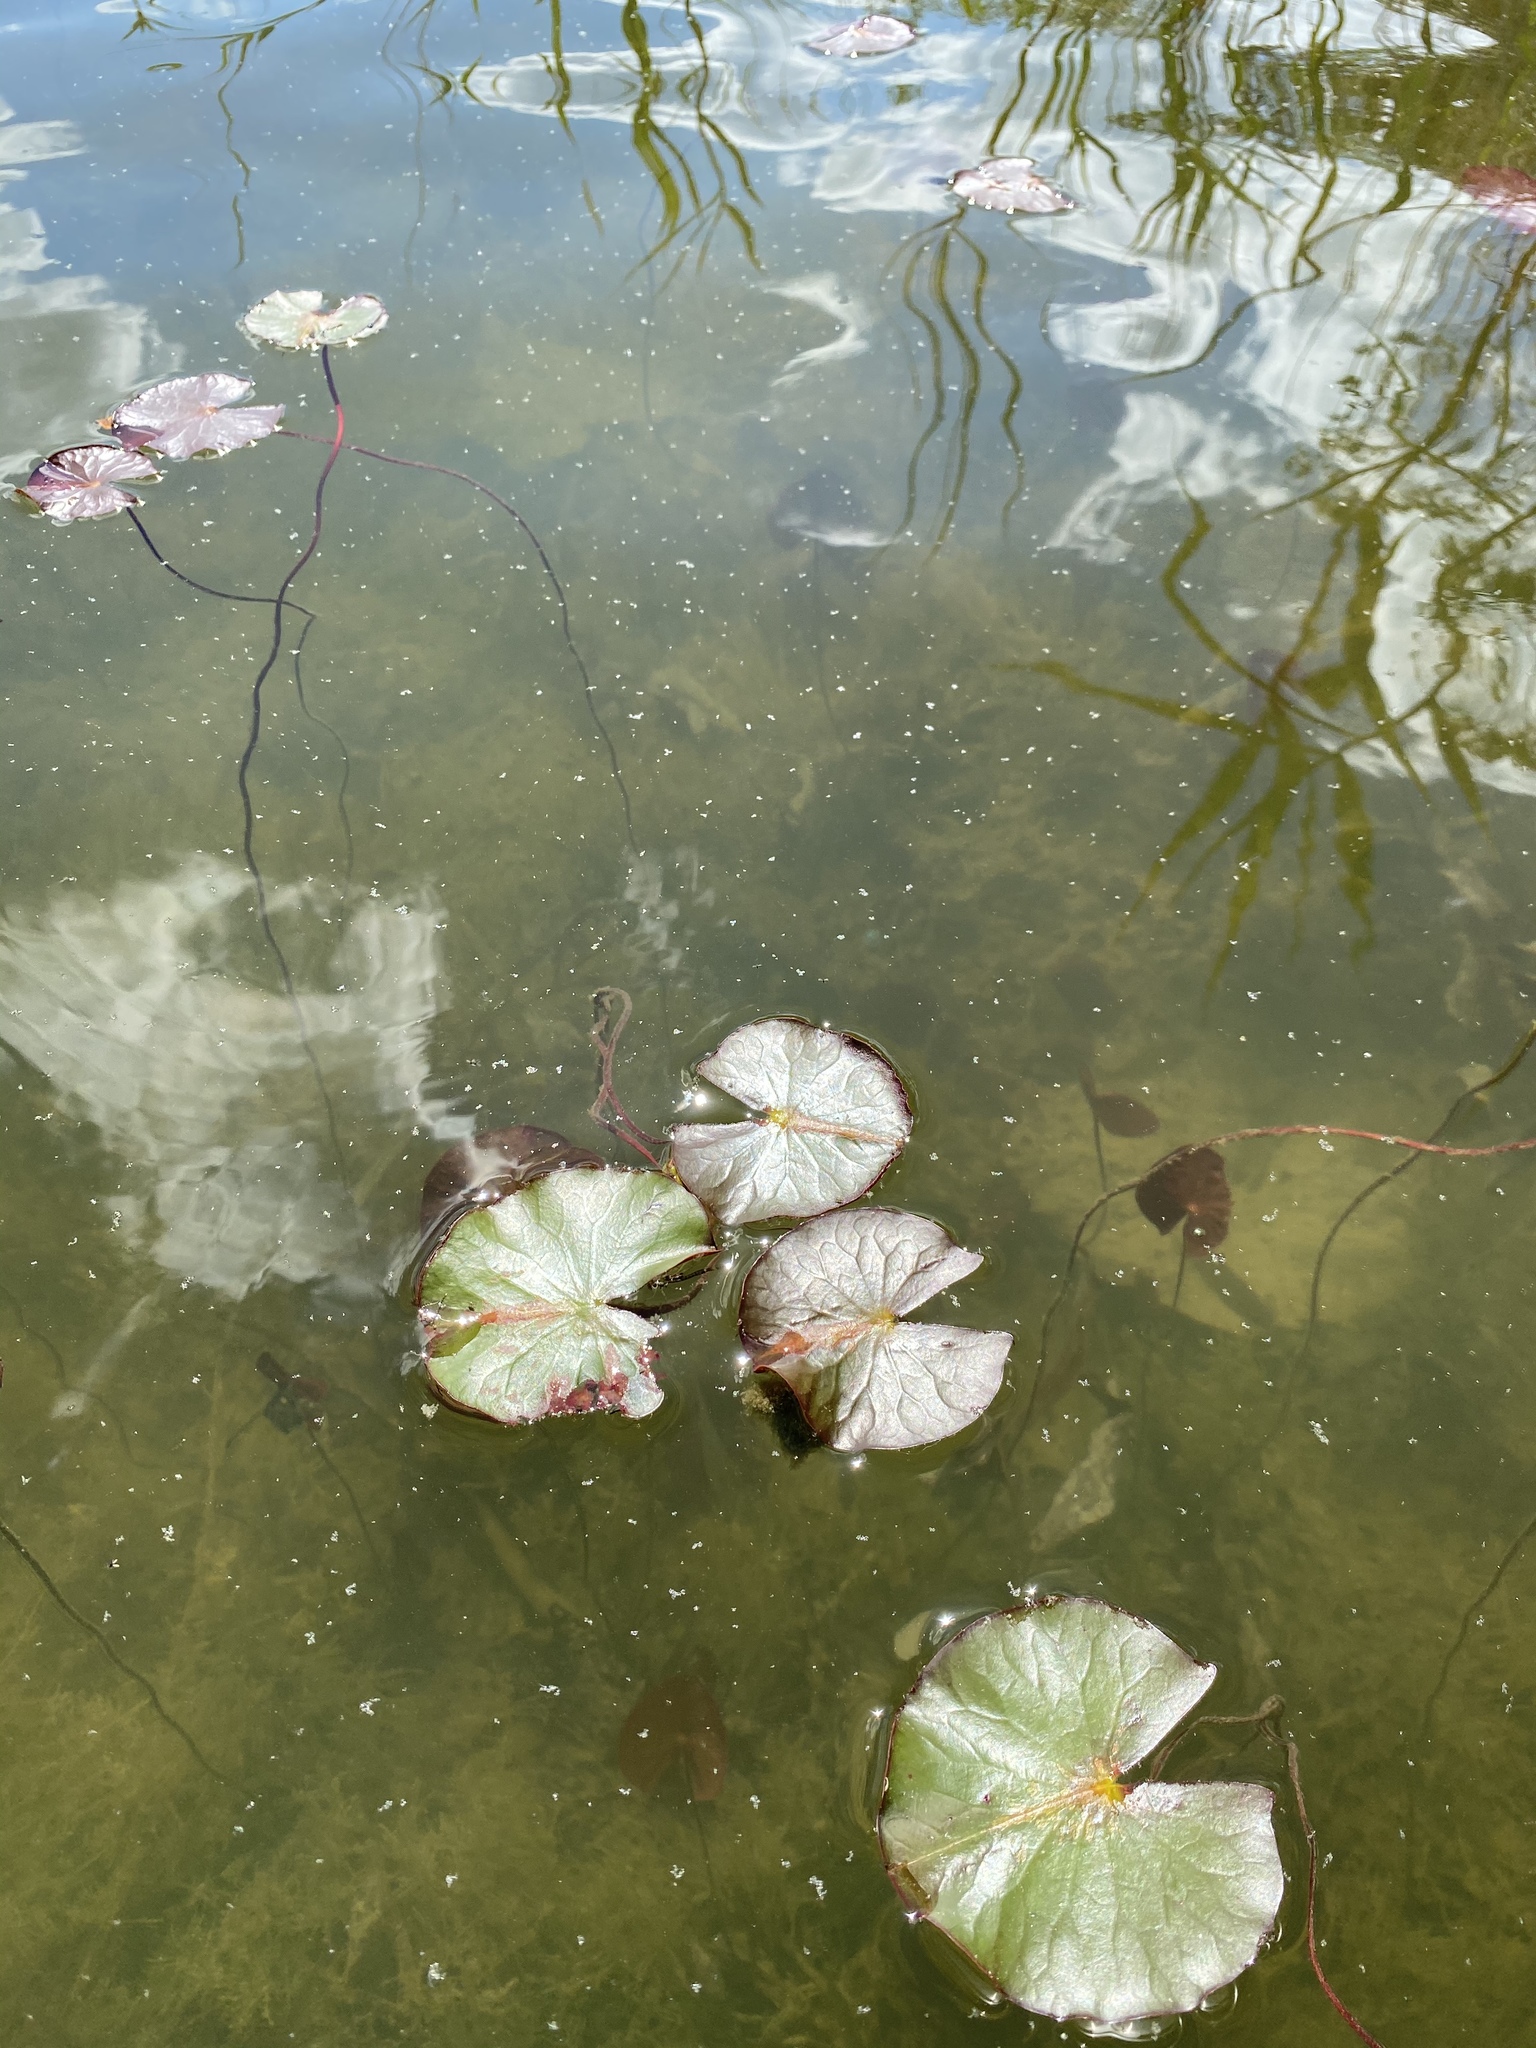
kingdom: Plantae
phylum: Tracheophyta
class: Magnoliopsida
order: Nymphaeales
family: Nymphaeaceae
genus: Nymphaea
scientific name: Nymphaea odorata
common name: Fragrant water-lily
